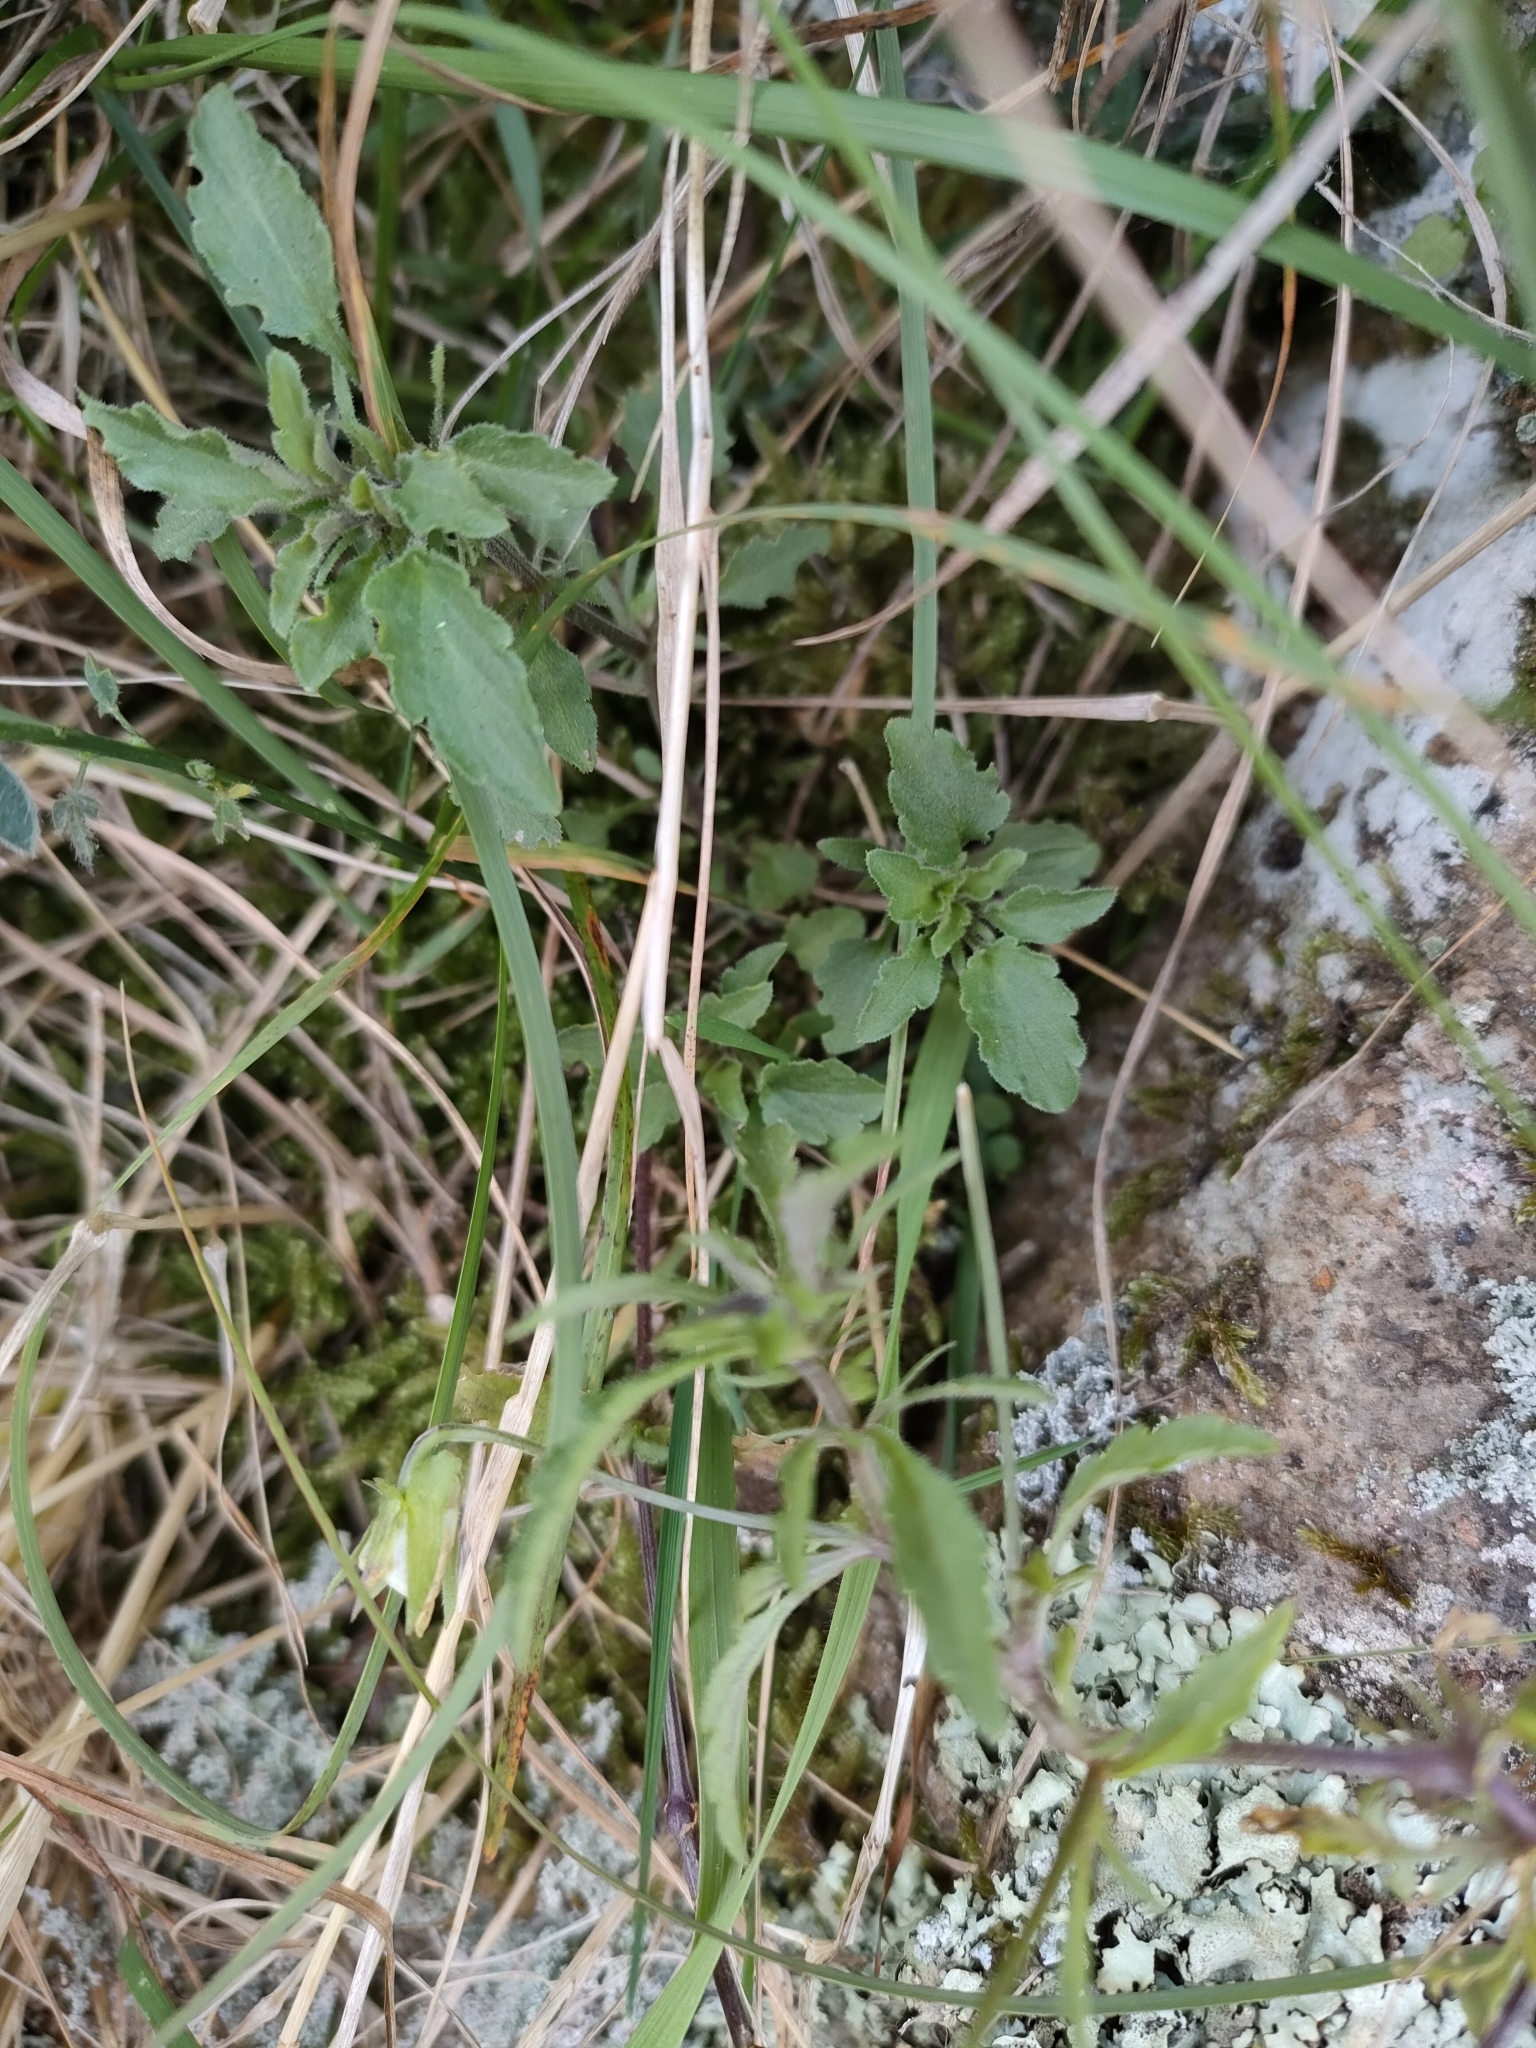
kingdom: Plantae
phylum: Tracheophyta
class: Magnoliopsida
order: Malpighiales
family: Violaceae
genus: Viola
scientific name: Viola arvensis
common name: Field pansy
